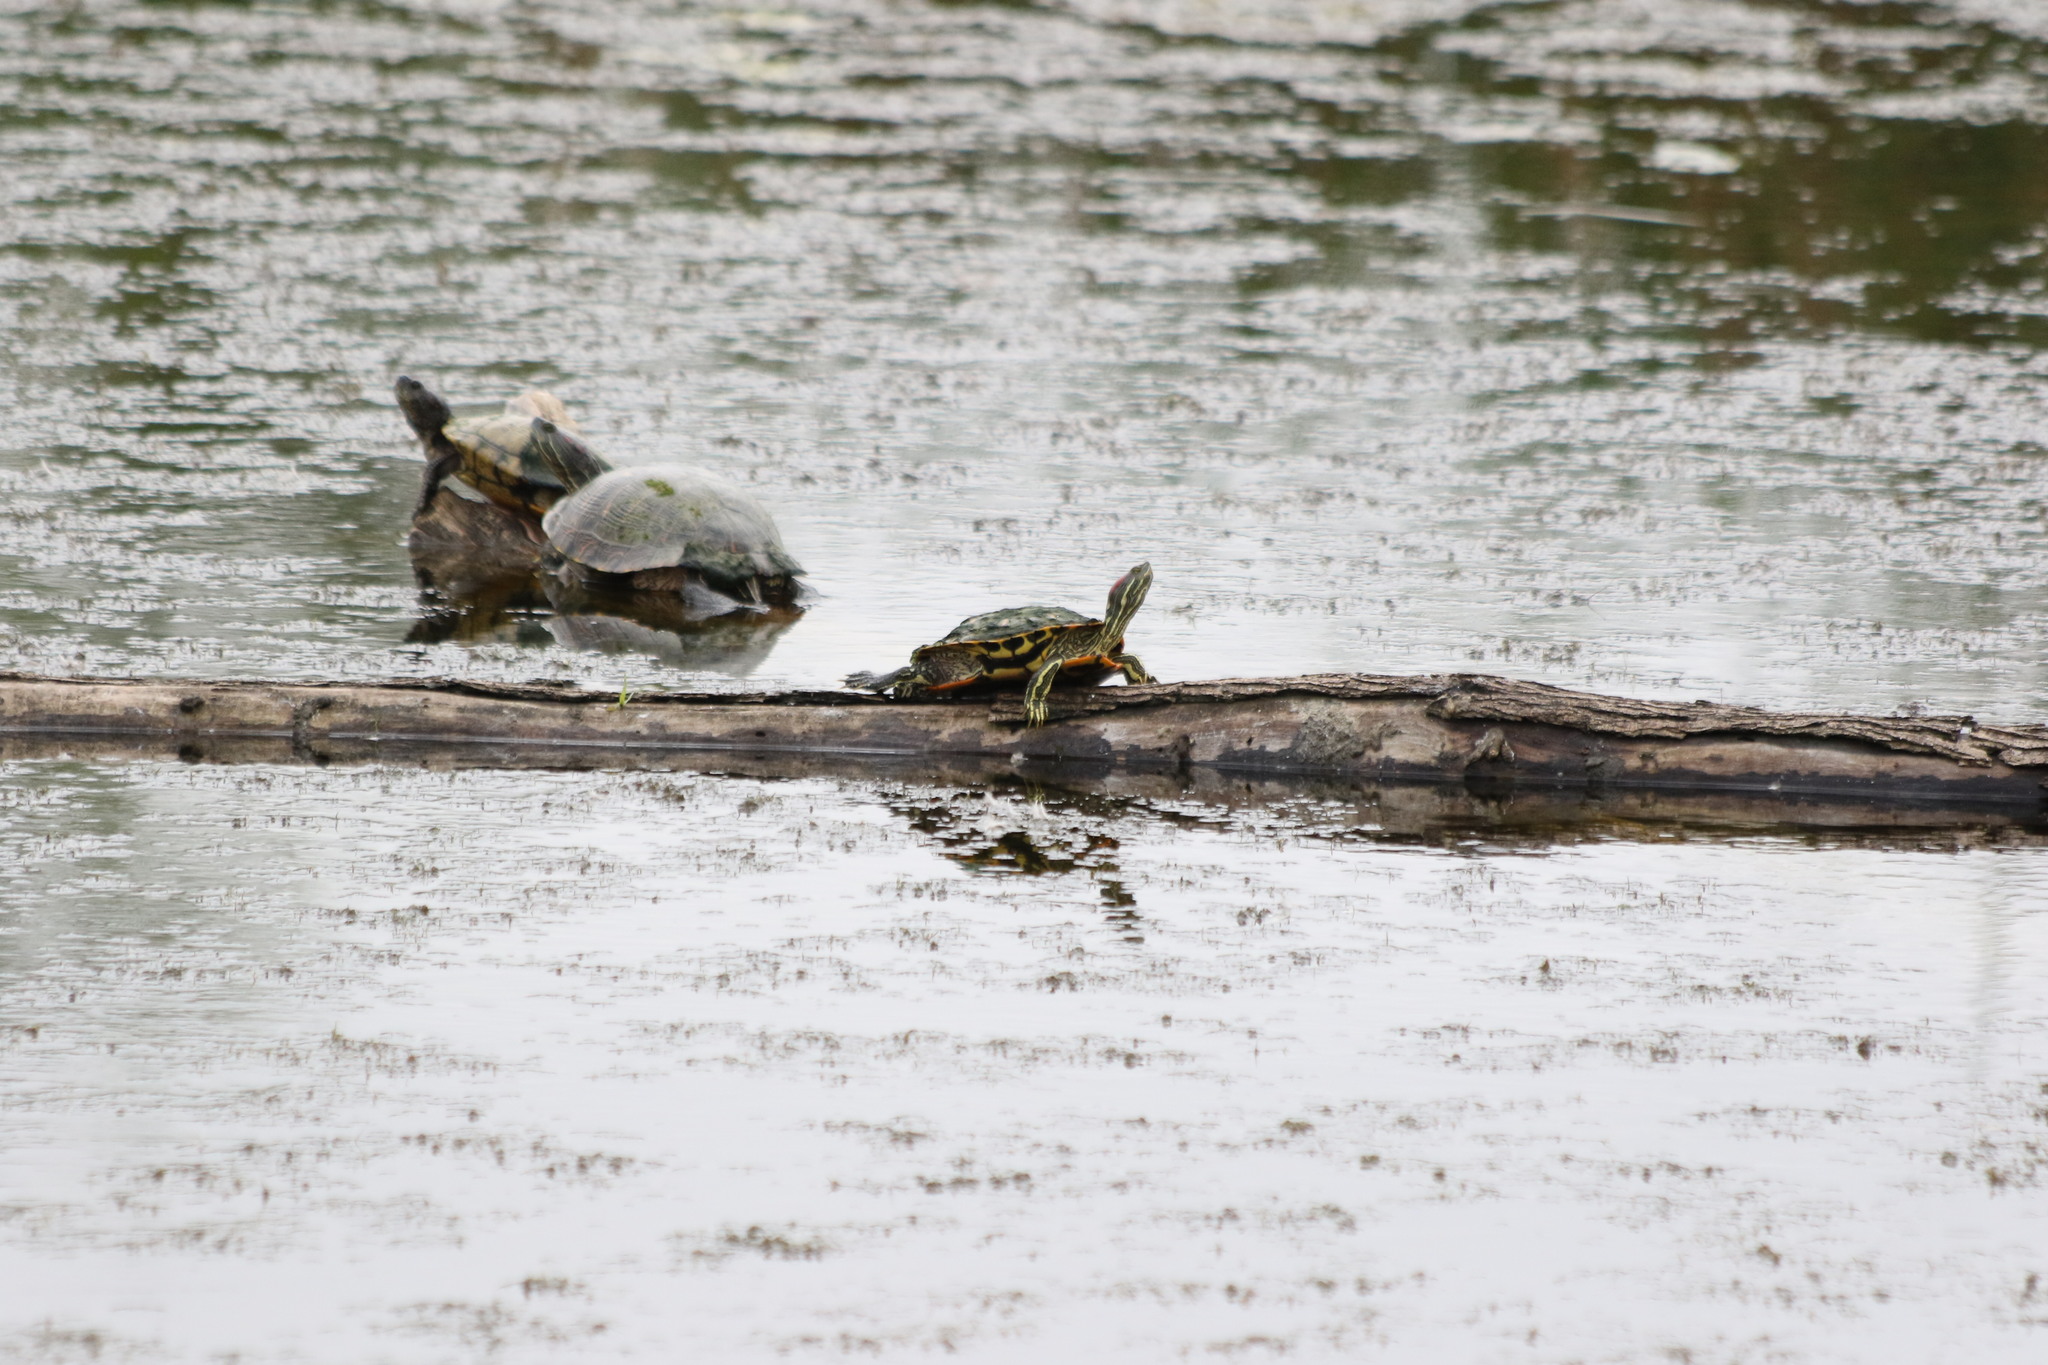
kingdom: Animalia
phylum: Chordata
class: Testudines
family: Emydidae
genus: Trachemys
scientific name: Trachemys scripta
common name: Slider
